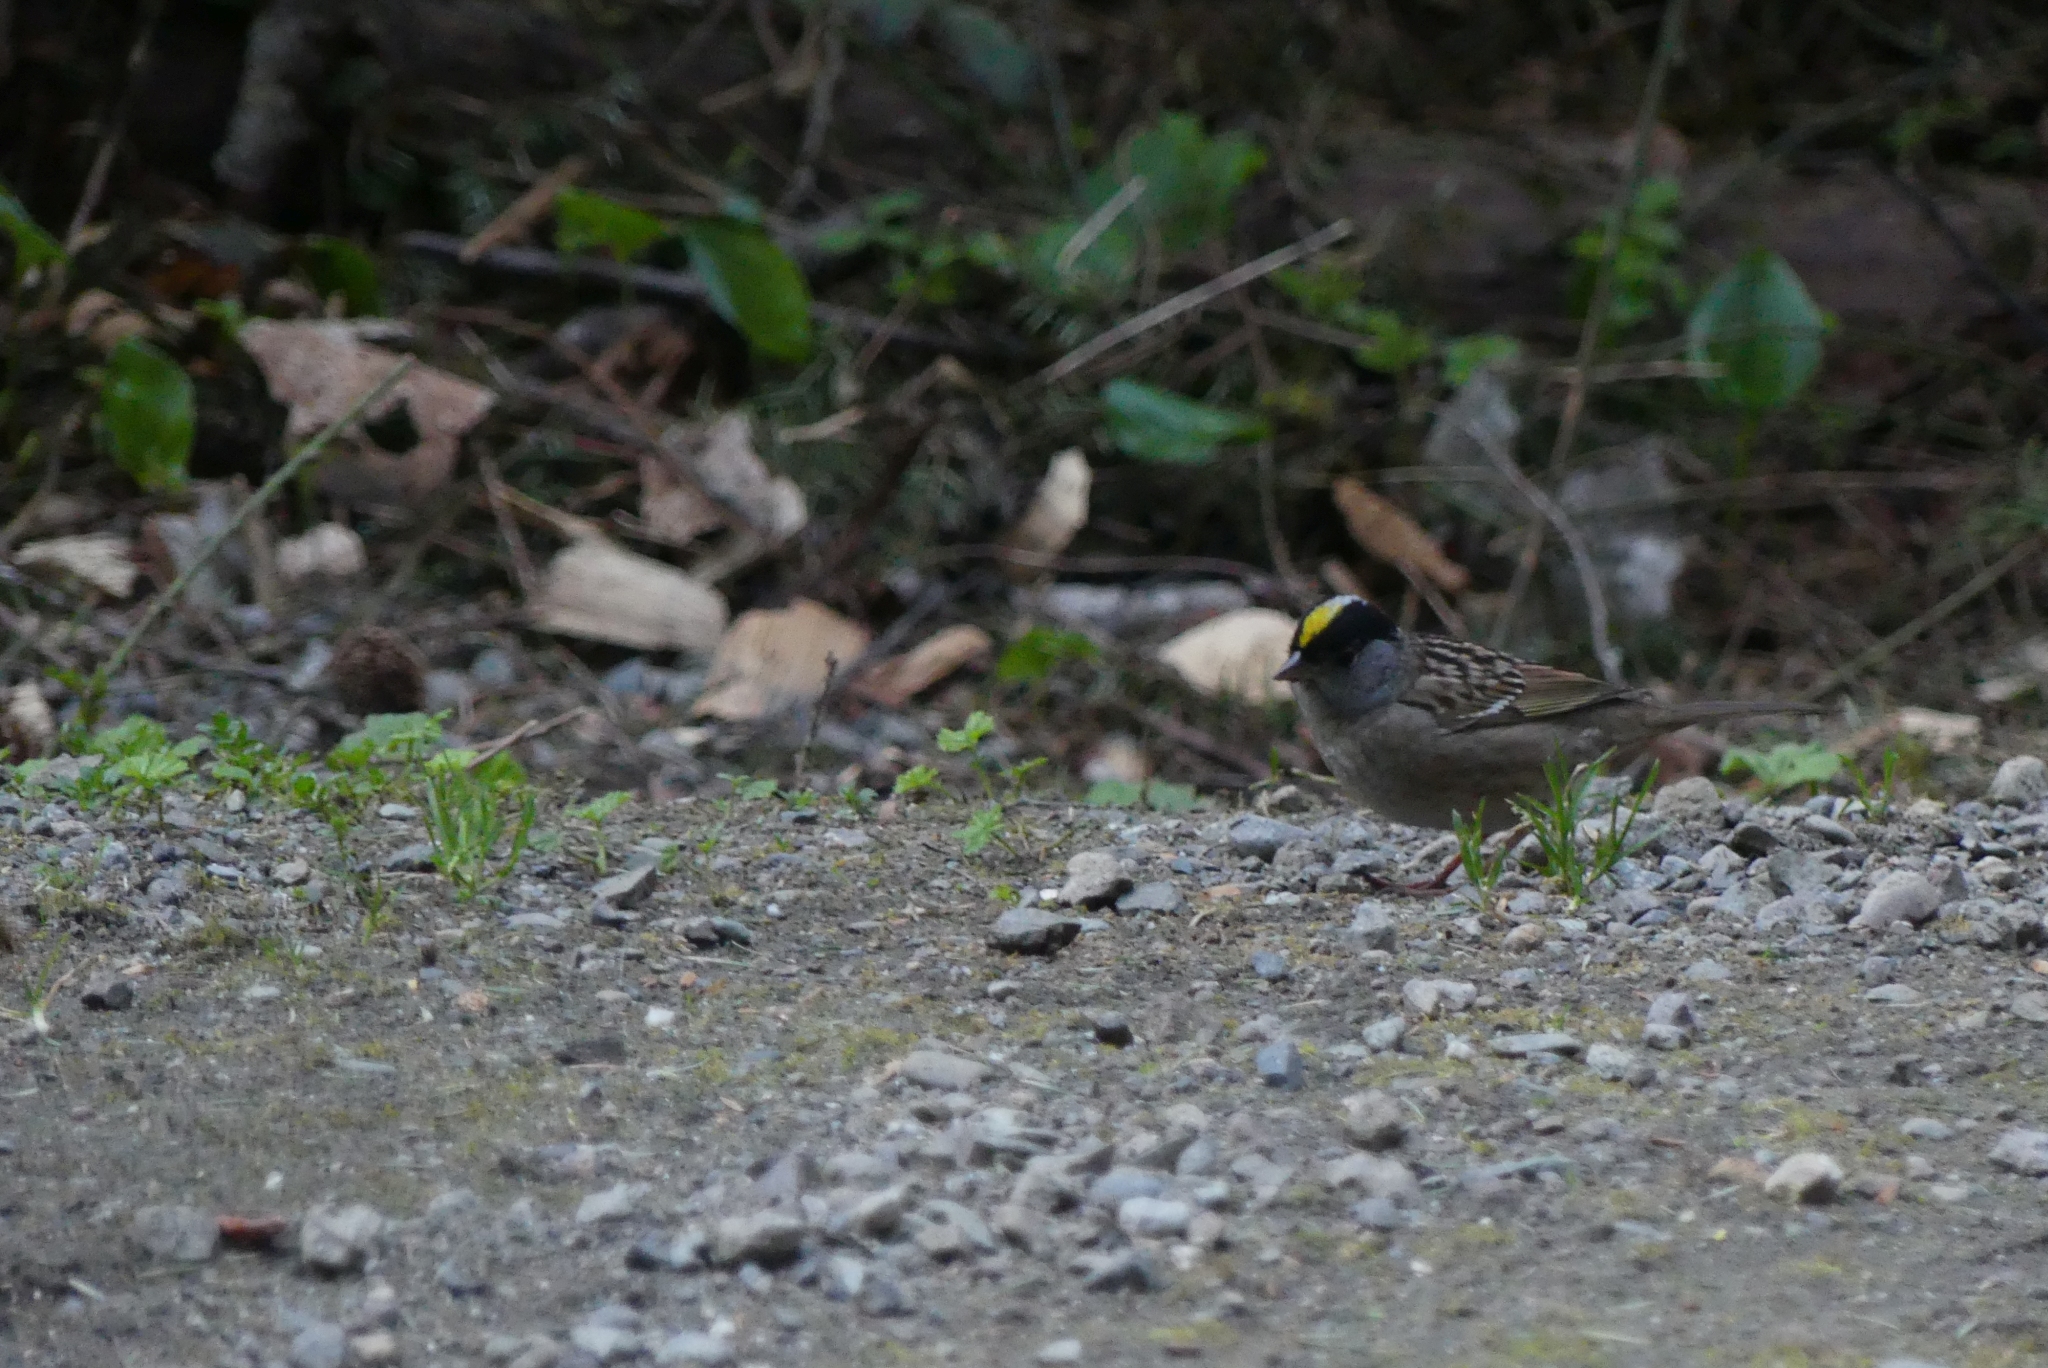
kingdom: Animalia
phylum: Chordata
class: Aves
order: Passeriformes
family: Passerellidae
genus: Zonotrichia
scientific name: Zonotrichia atricapilla
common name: Golden-crowned sparrow
